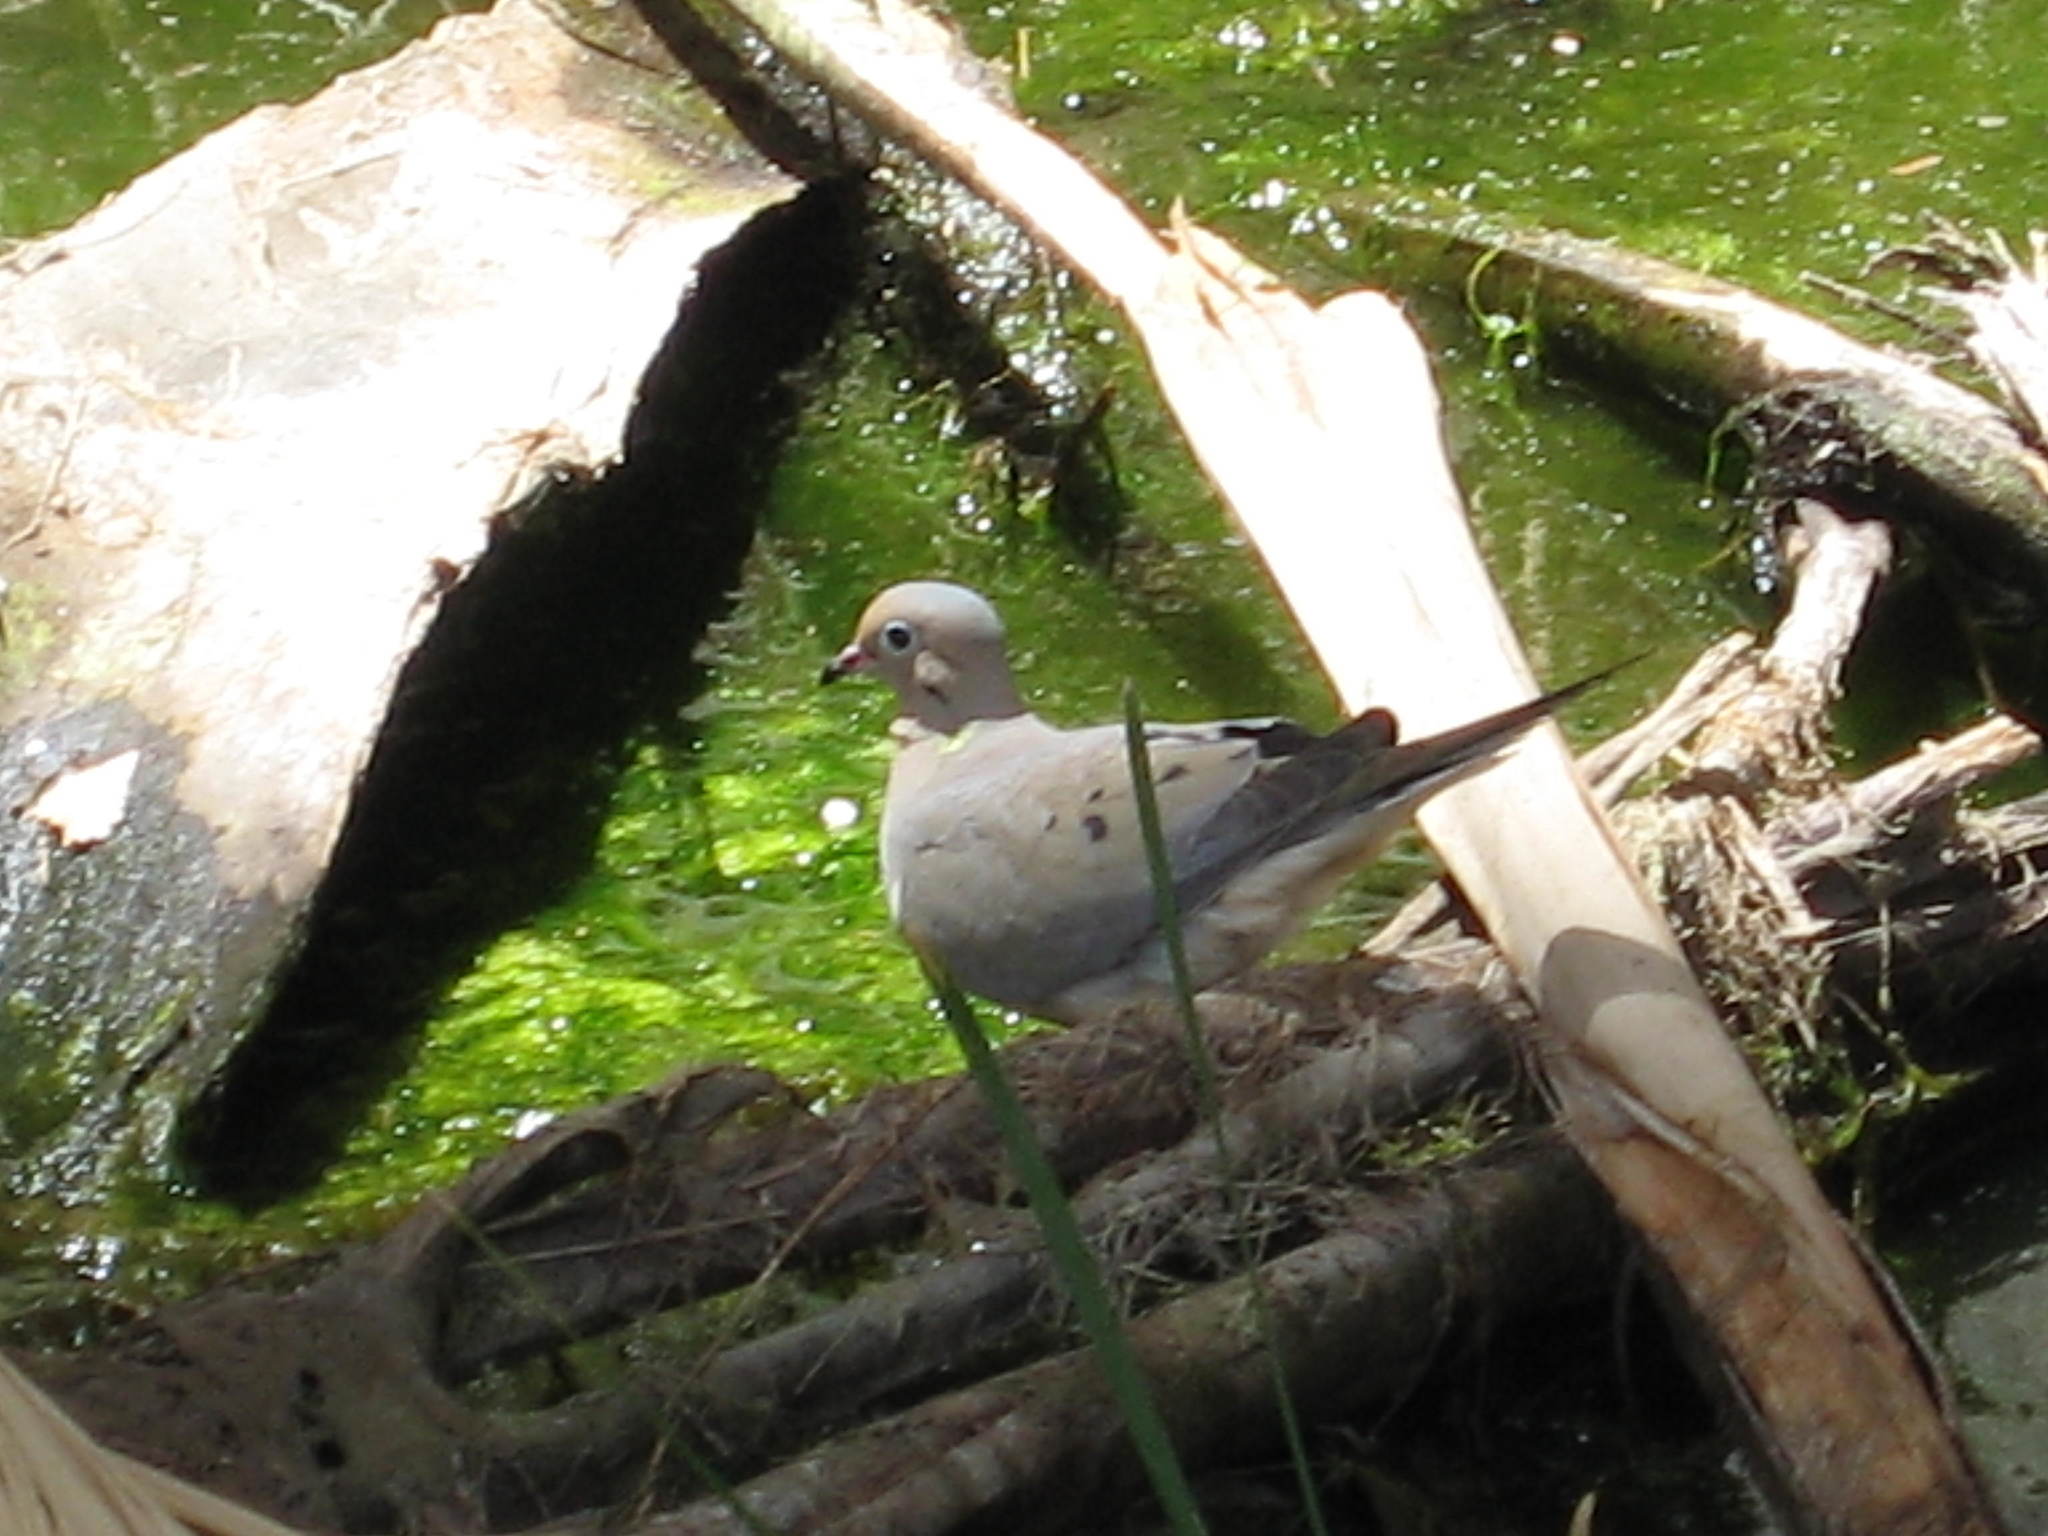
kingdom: Animalia
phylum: Chordata
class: Aves
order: Columbiformes
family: Columbidae
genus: Zenaida
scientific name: Zenaida macroura
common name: Mourning dove
